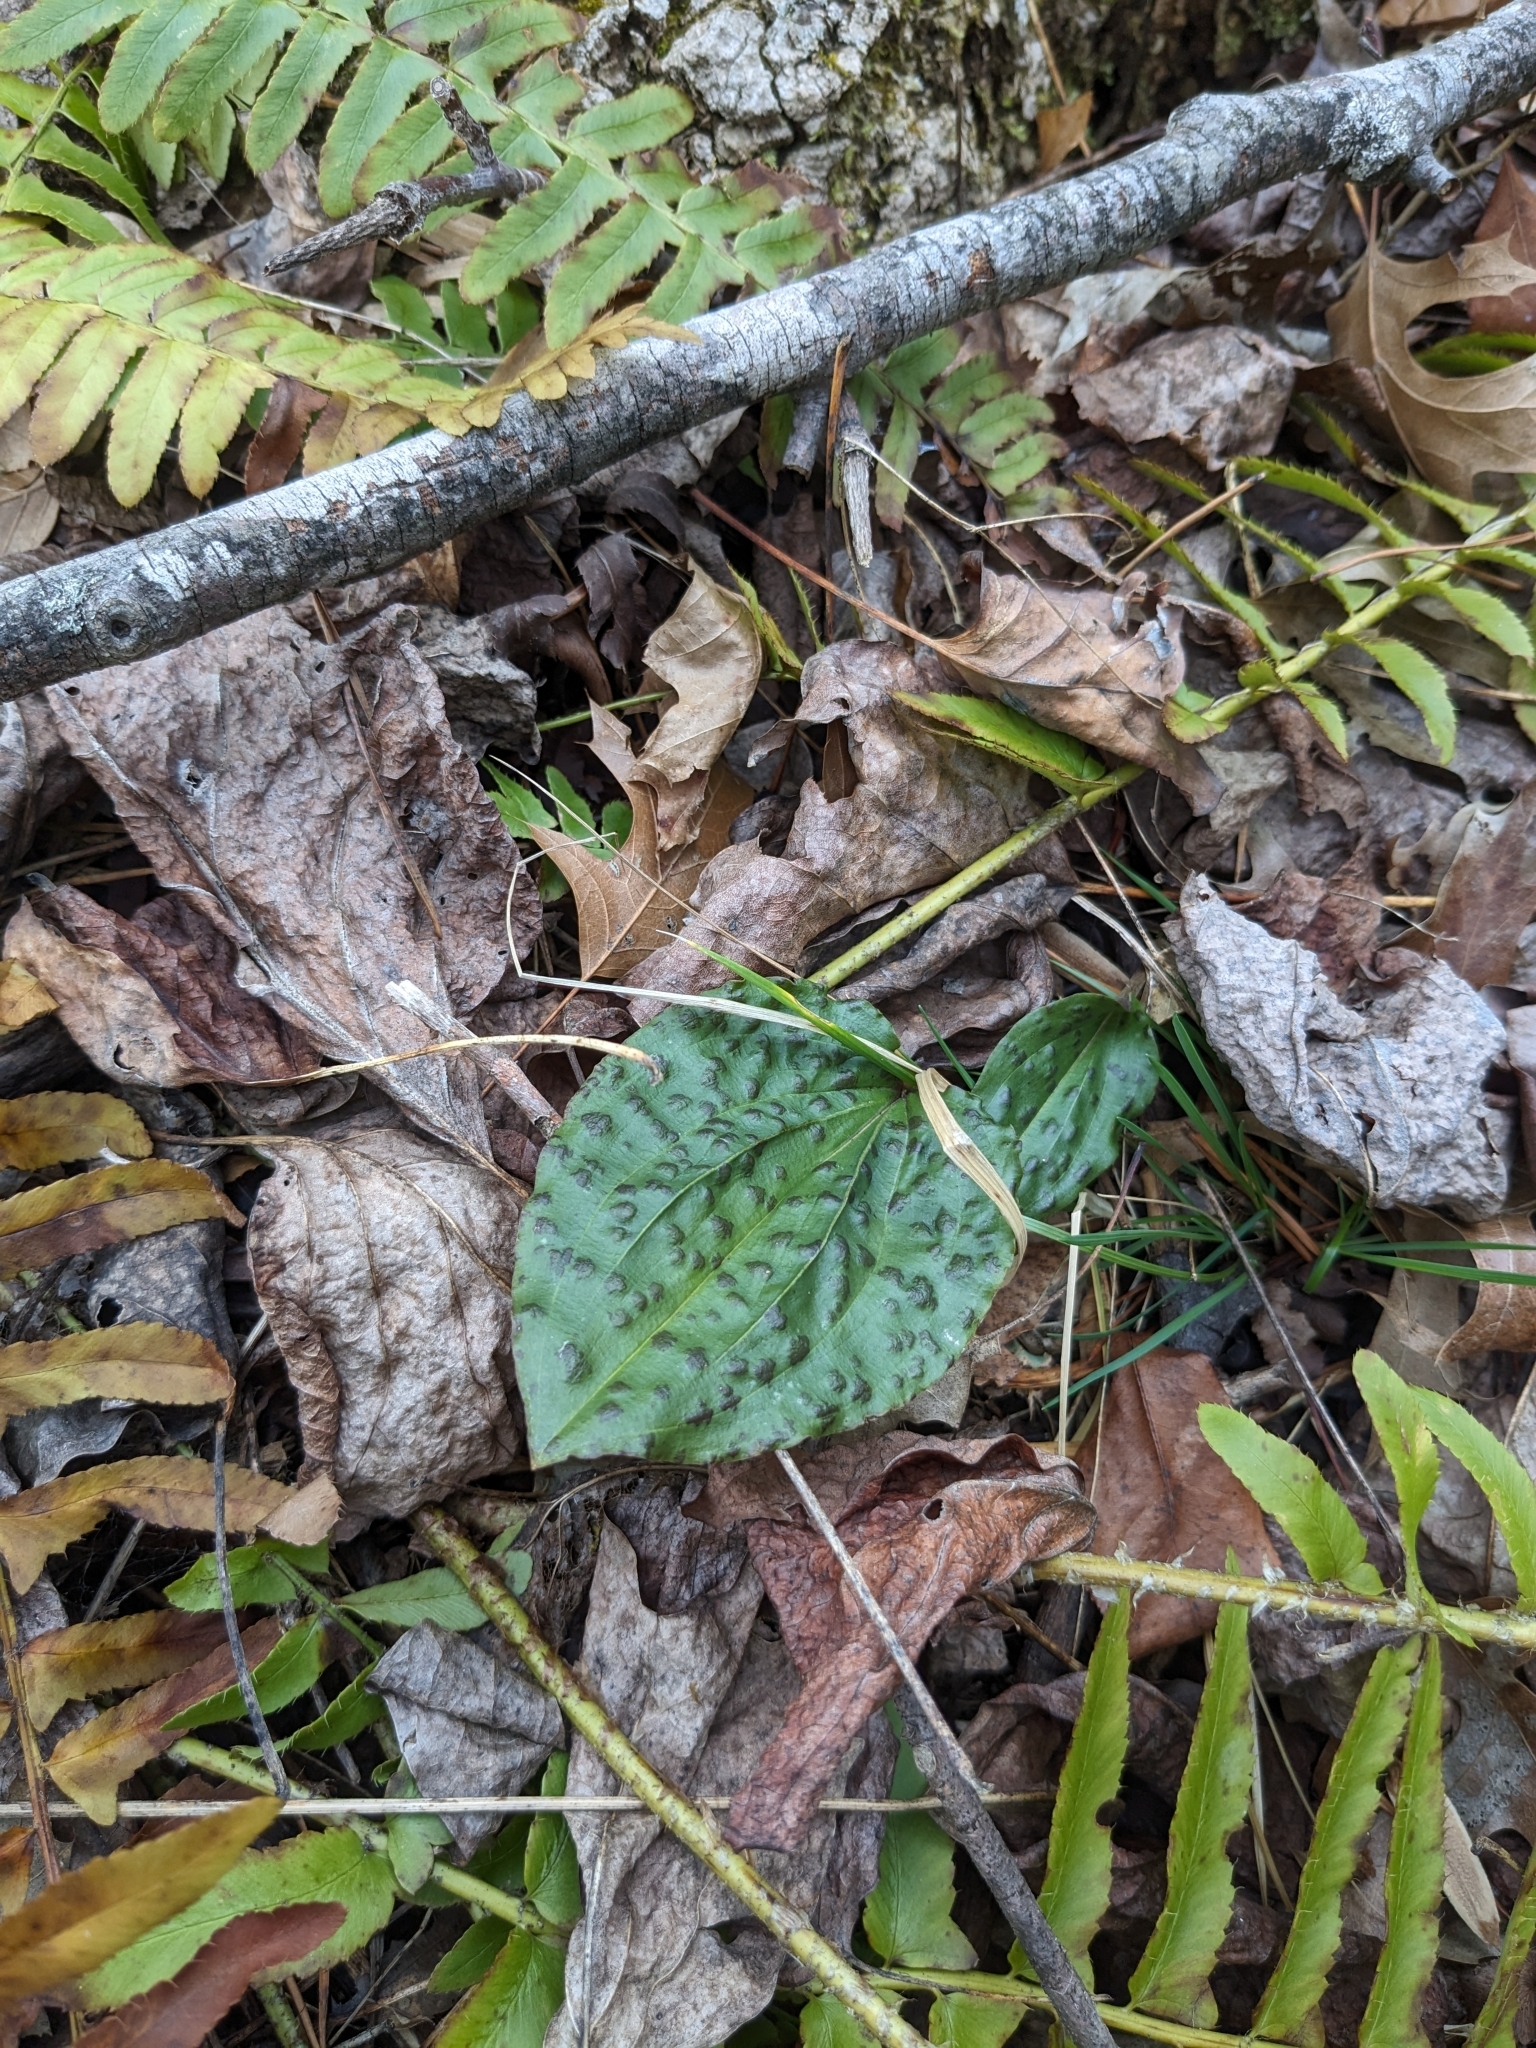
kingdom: Plantae
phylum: Tracheophyta
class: Liliopsida
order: Asparagales
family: Orchidaceae
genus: Tipularia
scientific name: Tipularia discolor
